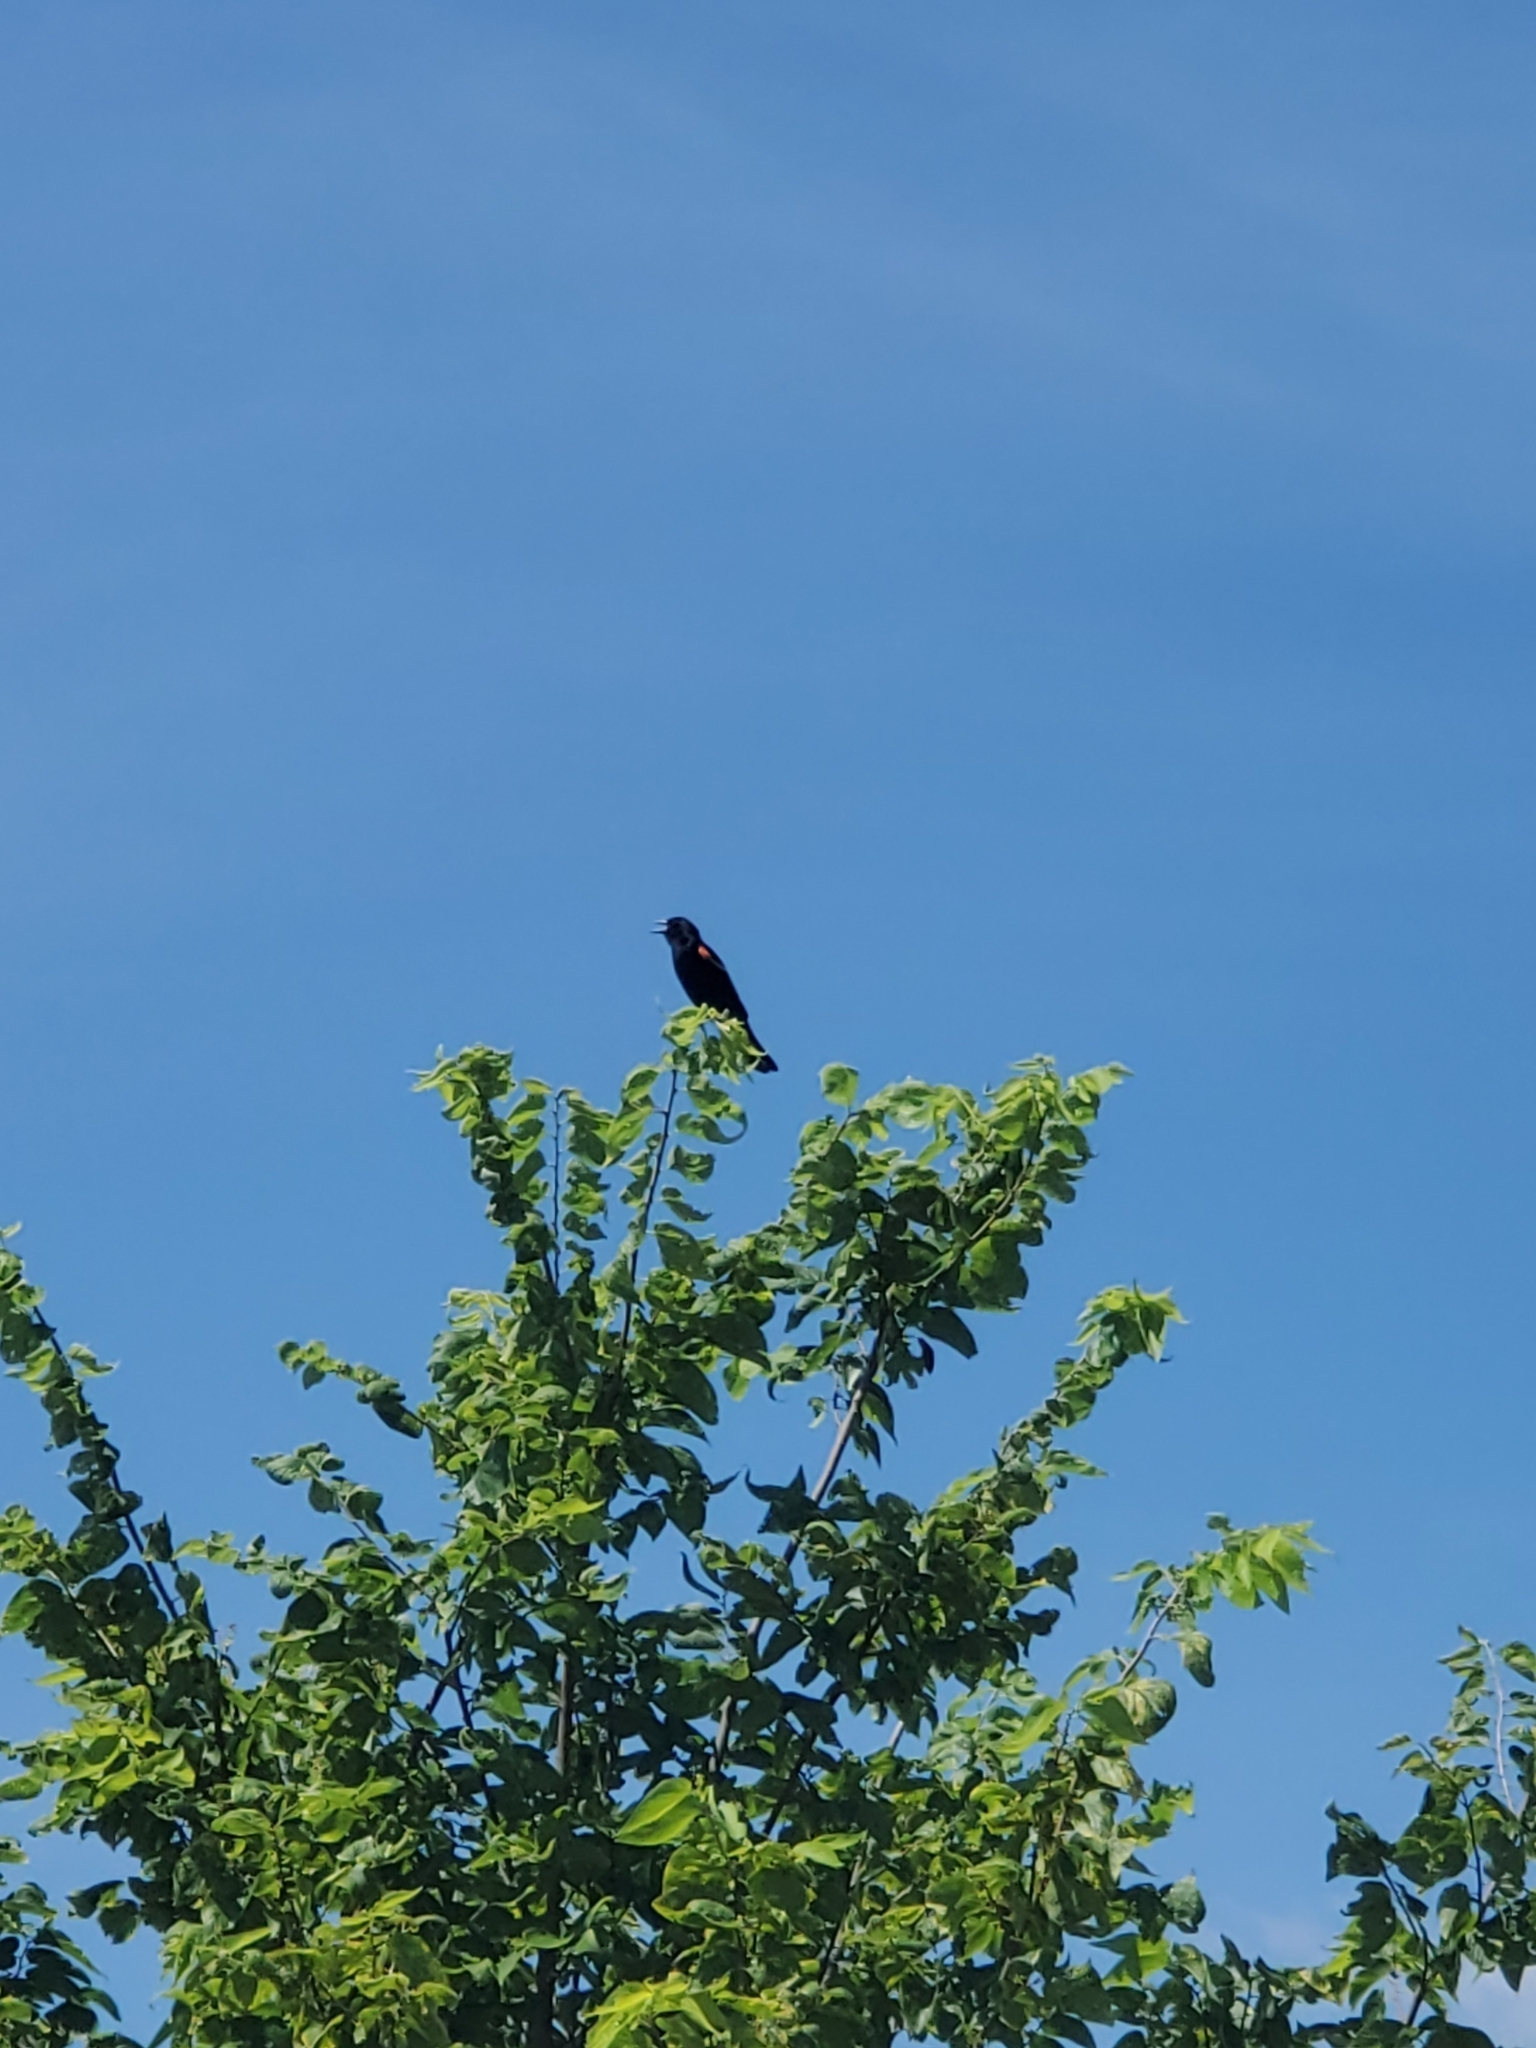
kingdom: Animalia
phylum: Chordata
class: Aves
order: Passeriformes
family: Icteridae
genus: Agelaius
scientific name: Agelaius phoeniceus
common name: Red-winged blackbird
